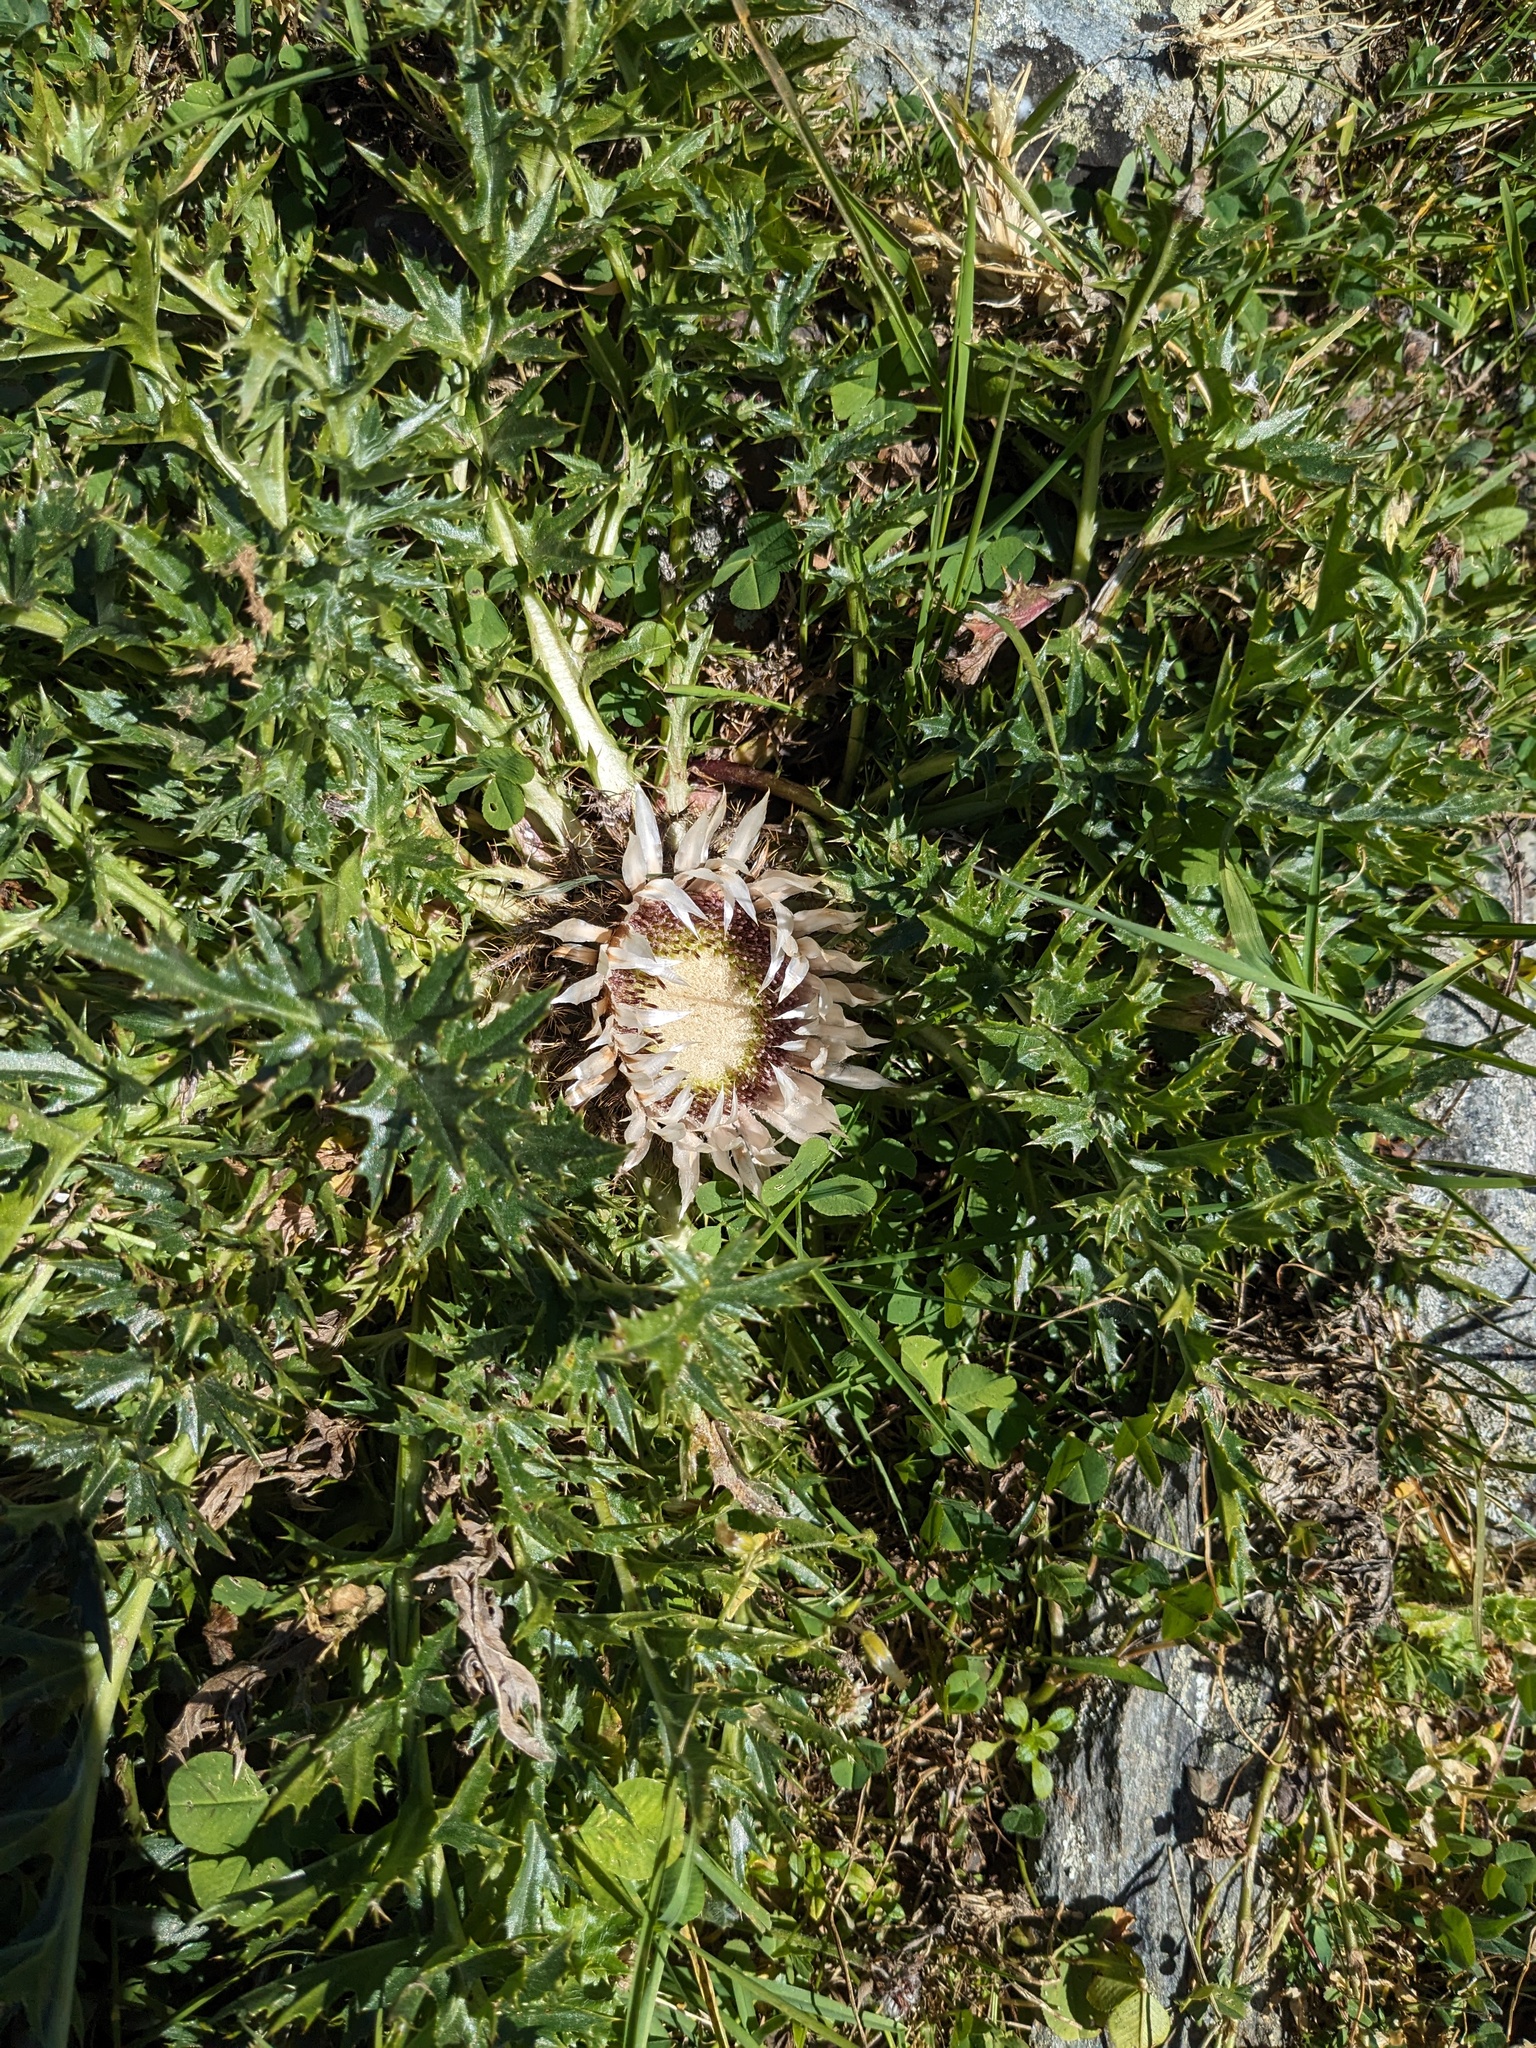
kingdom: Plantae
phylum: Tracheophyta
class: Magnoliopsida
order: Asterales
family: Asteraceae
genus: Carlina
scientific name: Carlina acaulis
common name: Stemless carline thistle
